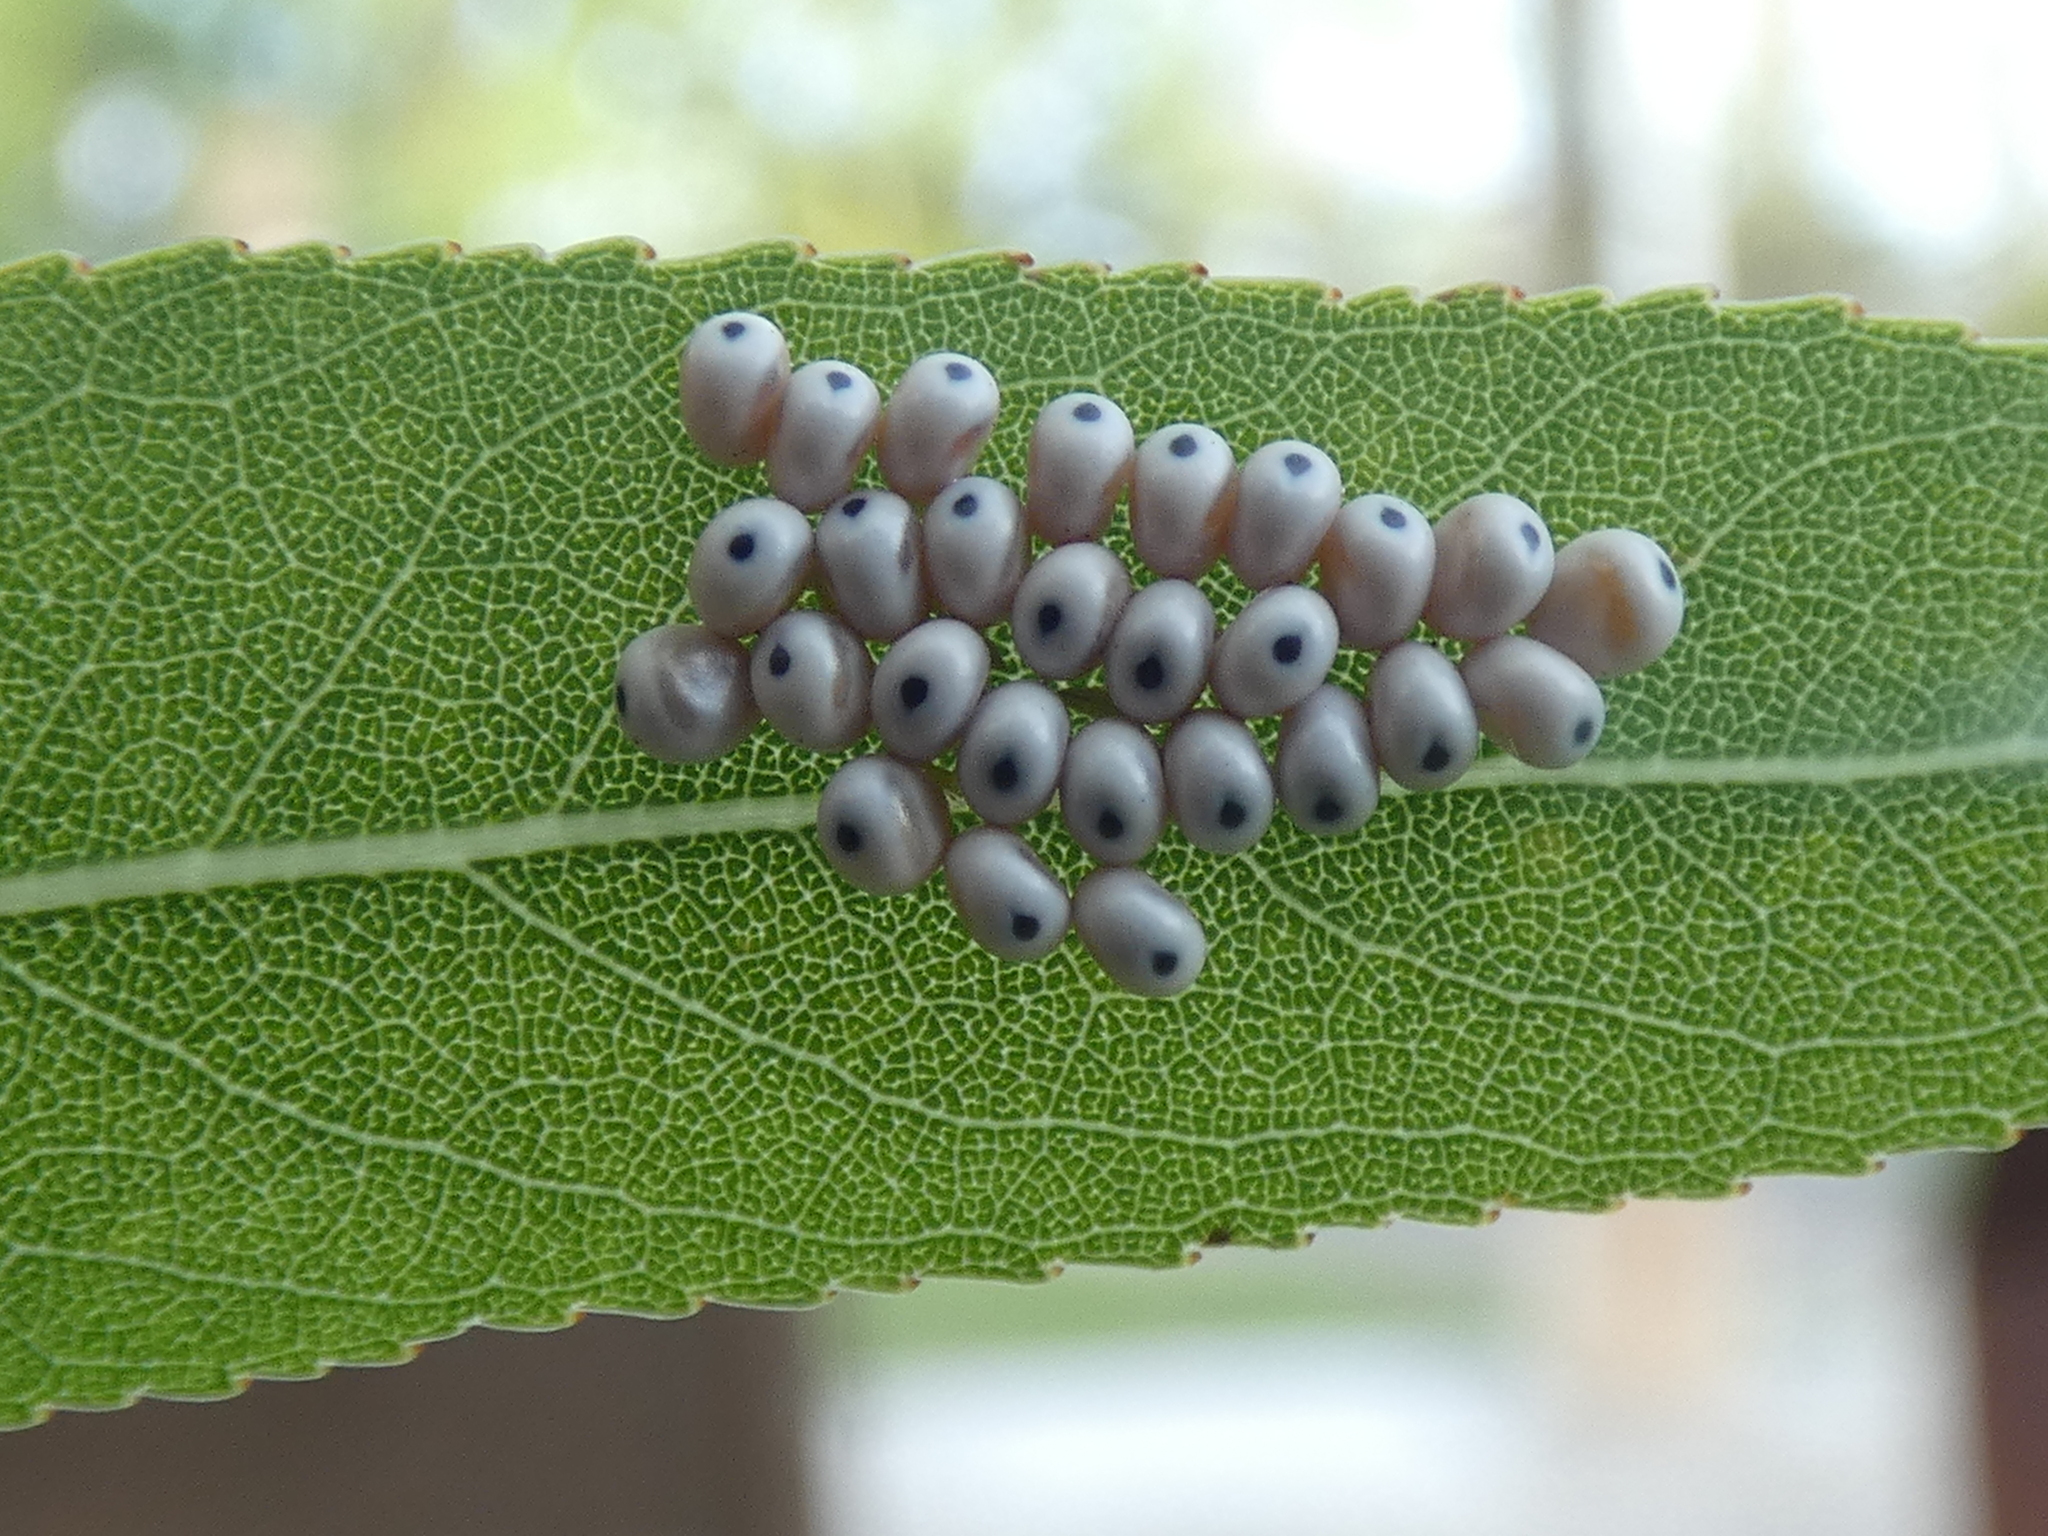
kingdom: Animalia
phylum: Arthropoda
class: Insecta
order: Lepidoptera
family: Saturniidae
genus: Automeris
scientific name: Automeris io
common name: Io moth
